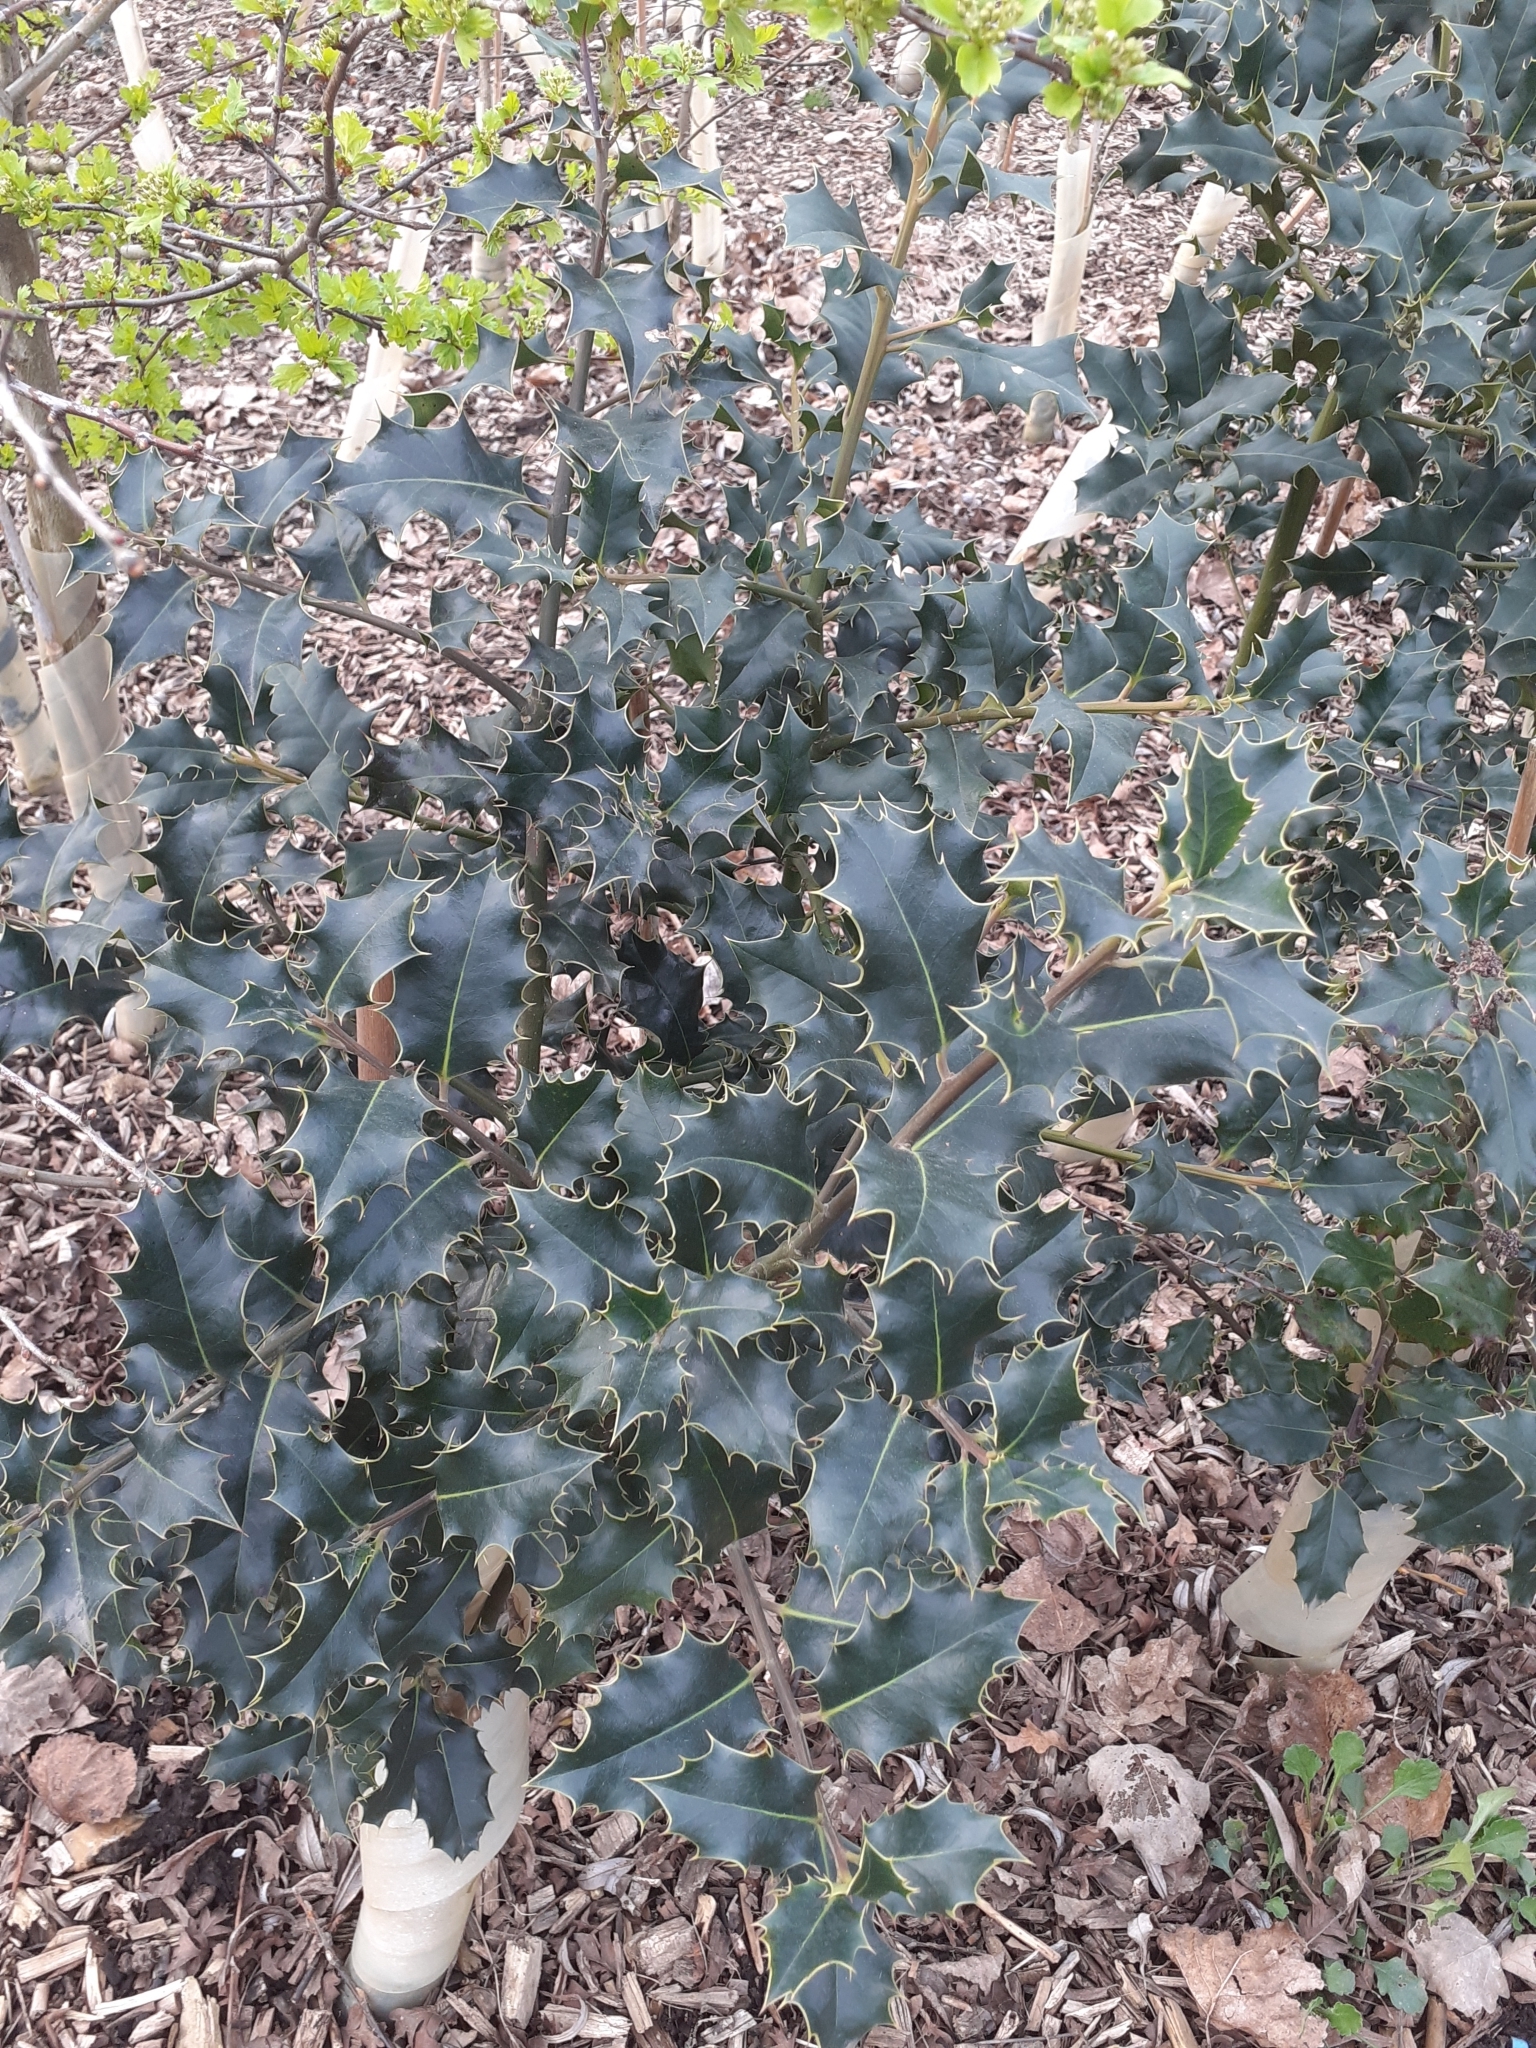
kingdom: Plantae
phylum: Tracheophyta
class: Magnoliopsida
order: Aquifoliales
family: Aquifoliaceae
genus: Ilex
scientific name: Ilex aquifolium
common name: English holly
